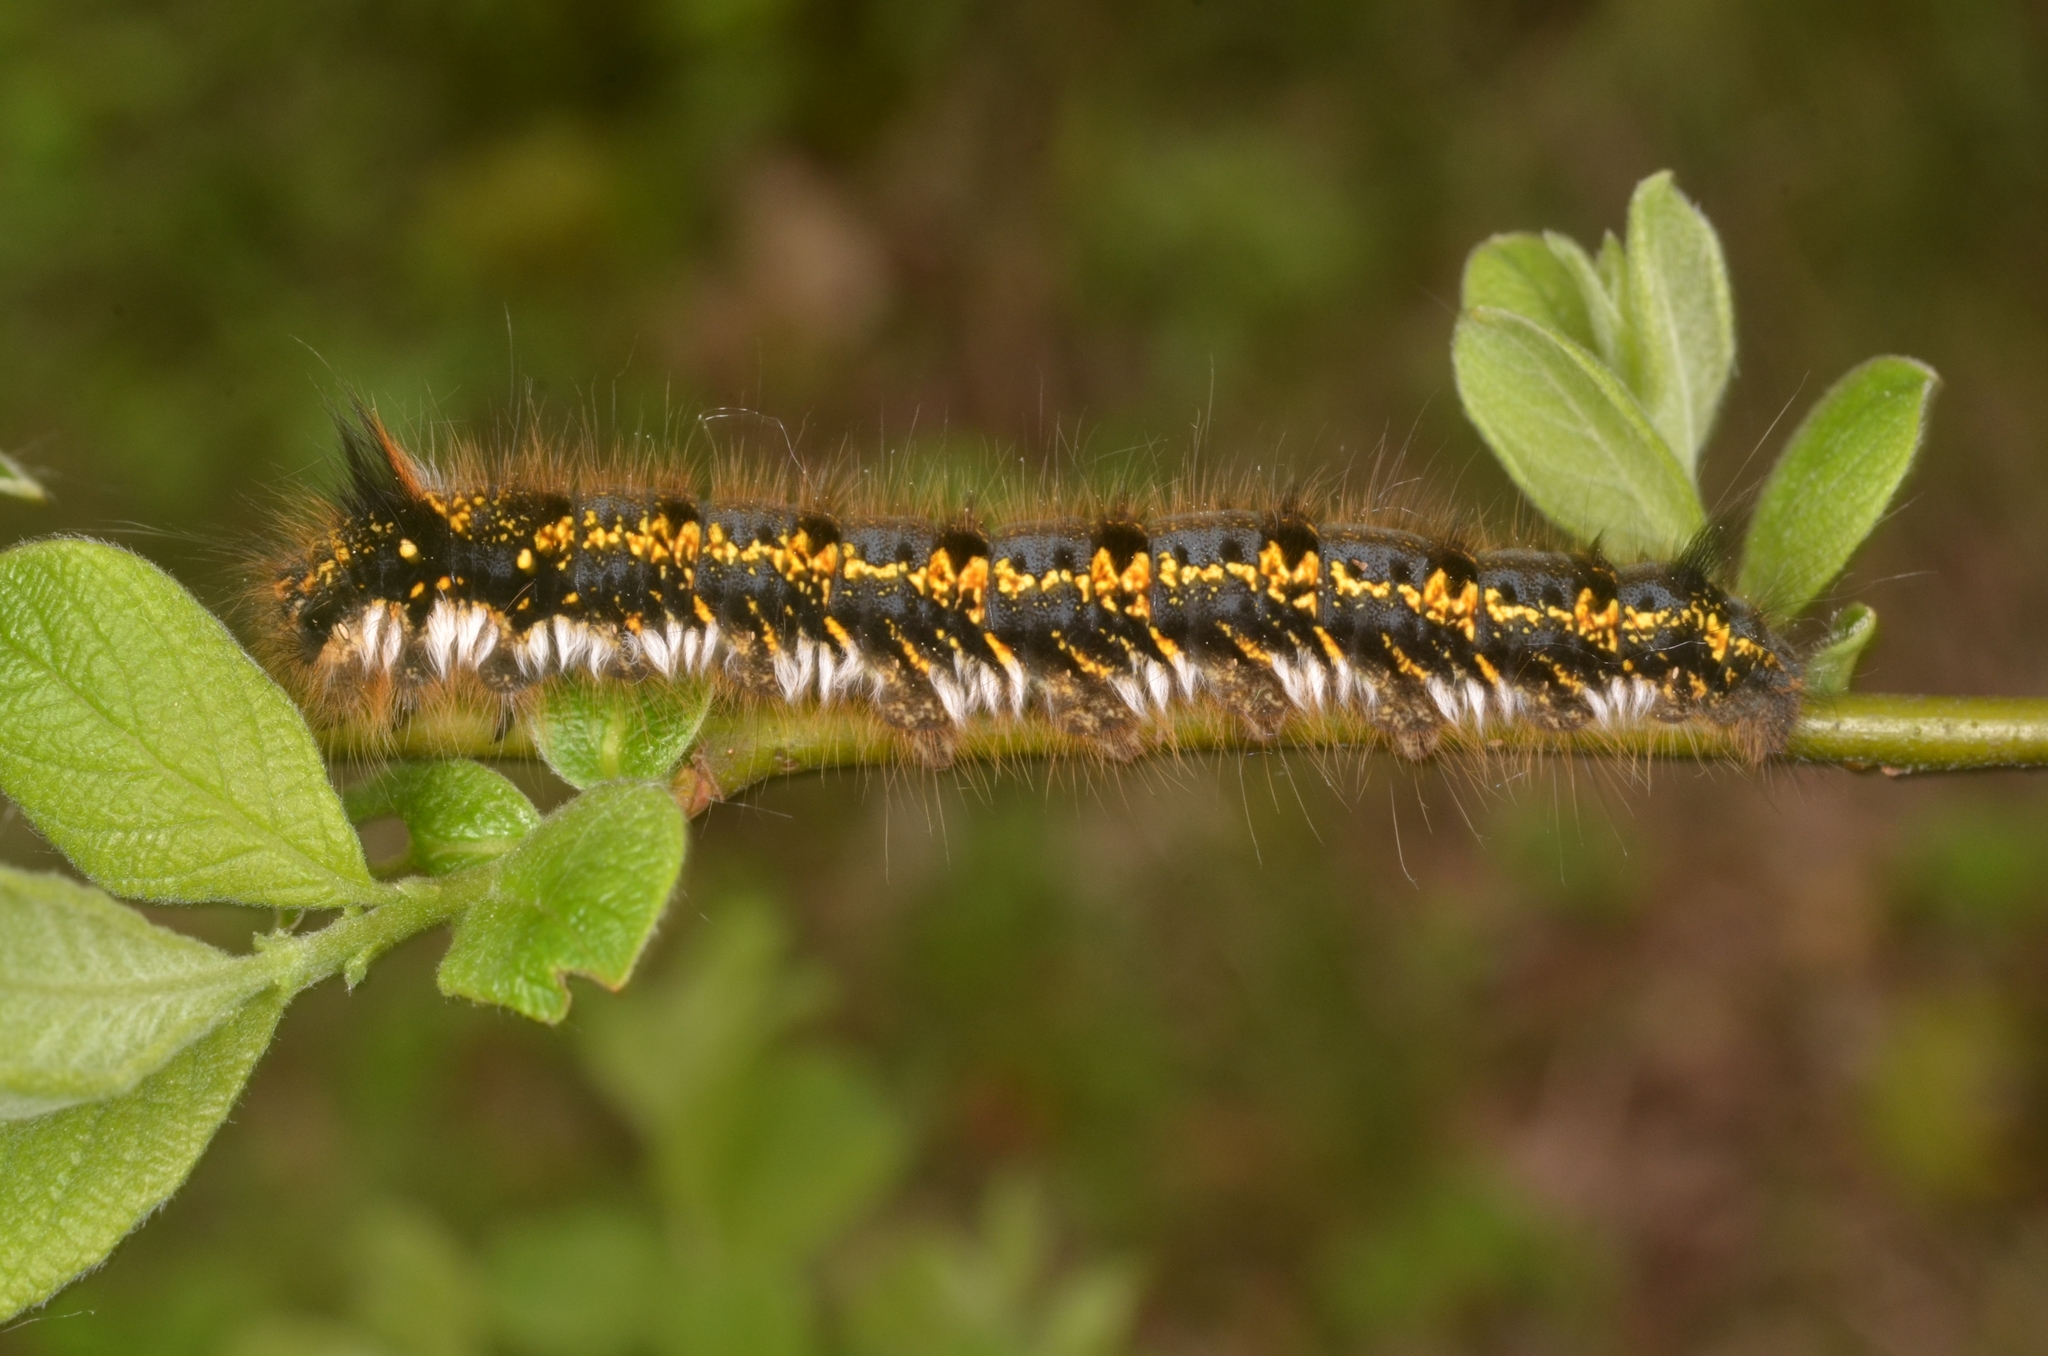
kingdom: Animalia
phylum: Arthropoda
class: Insecta
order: Lepidoptera
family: Lasiocampidae
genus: Euthrix
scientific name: Euthrix potatoria
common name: Drinker
